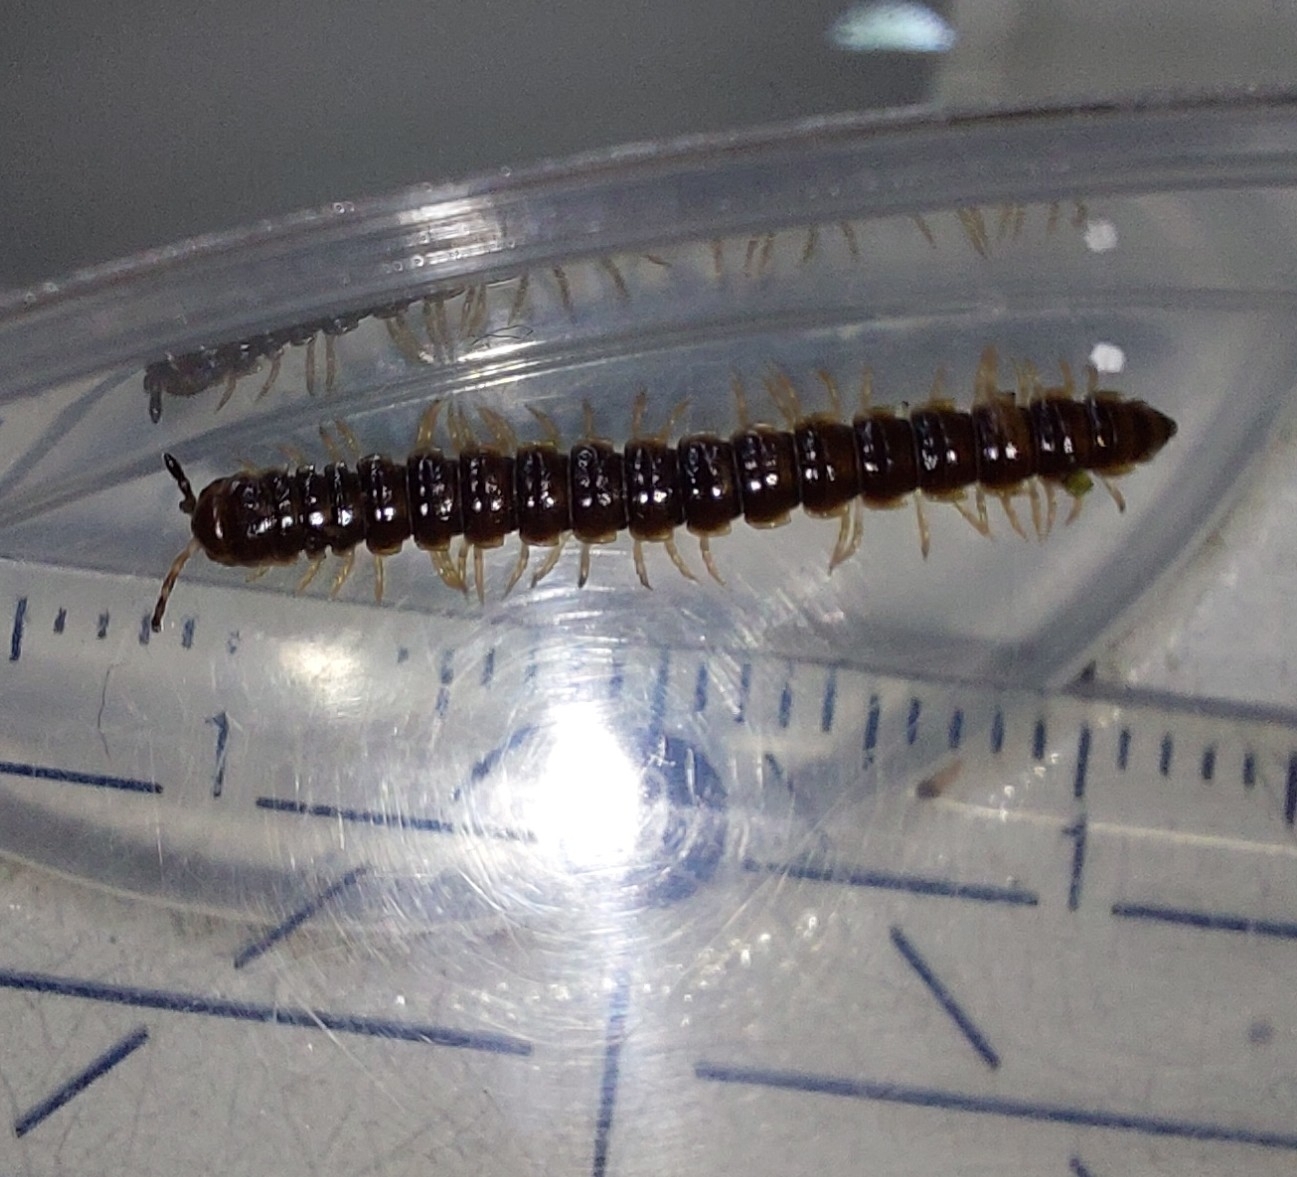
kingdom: Animalia
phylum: Arthropoda
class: Diplopoda
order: Polydesmida
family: Paradoxosomatidae
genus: Oxidus
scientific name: Oxidus gracilis
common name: Greenhouse millipede
